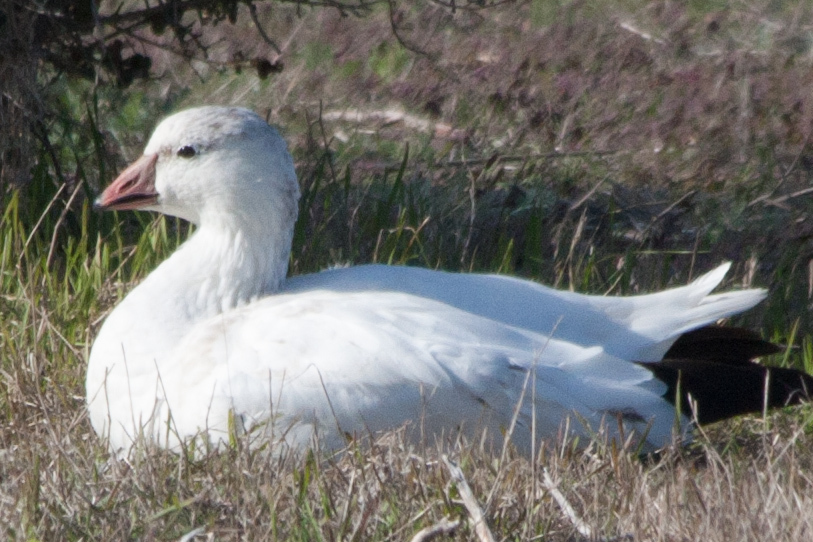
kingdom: Animalia
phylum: Chordata
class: Aves
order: Anseriformes
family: Anatidae
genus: Anser
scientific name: Anser rossii
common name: Ross's goose
